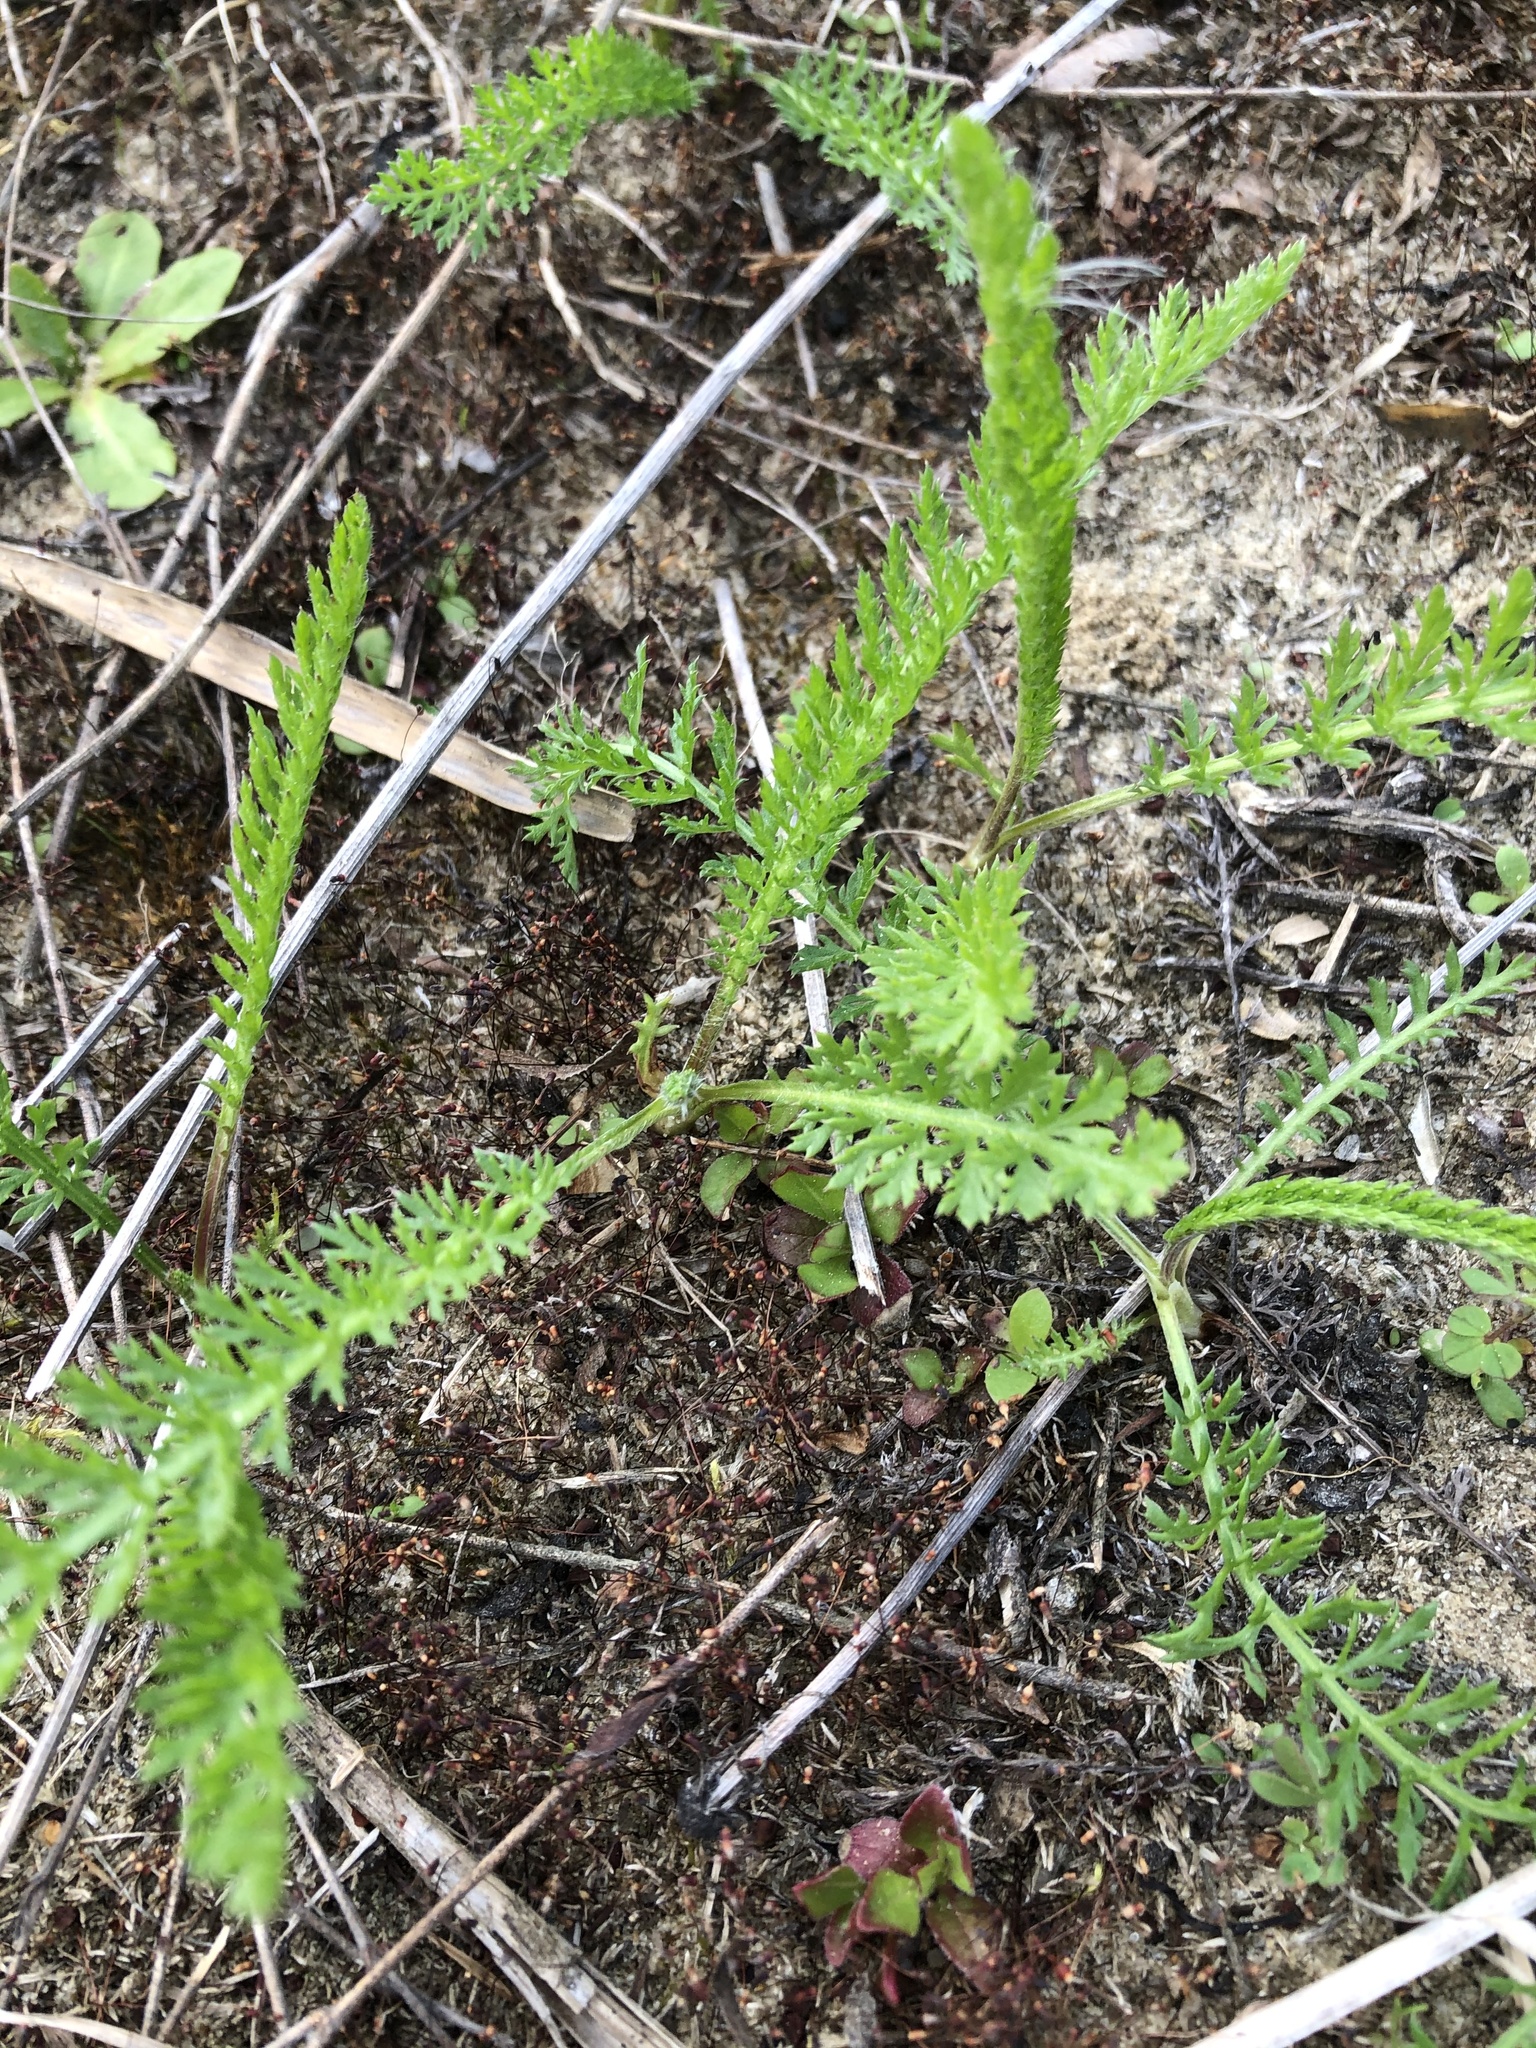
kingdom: Plantae
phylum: Tracheophyta
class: Magnoliopsida
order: Asterales
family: Asteraceae
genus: Achillea
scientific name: Achillea millefolium
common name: Yarrow
